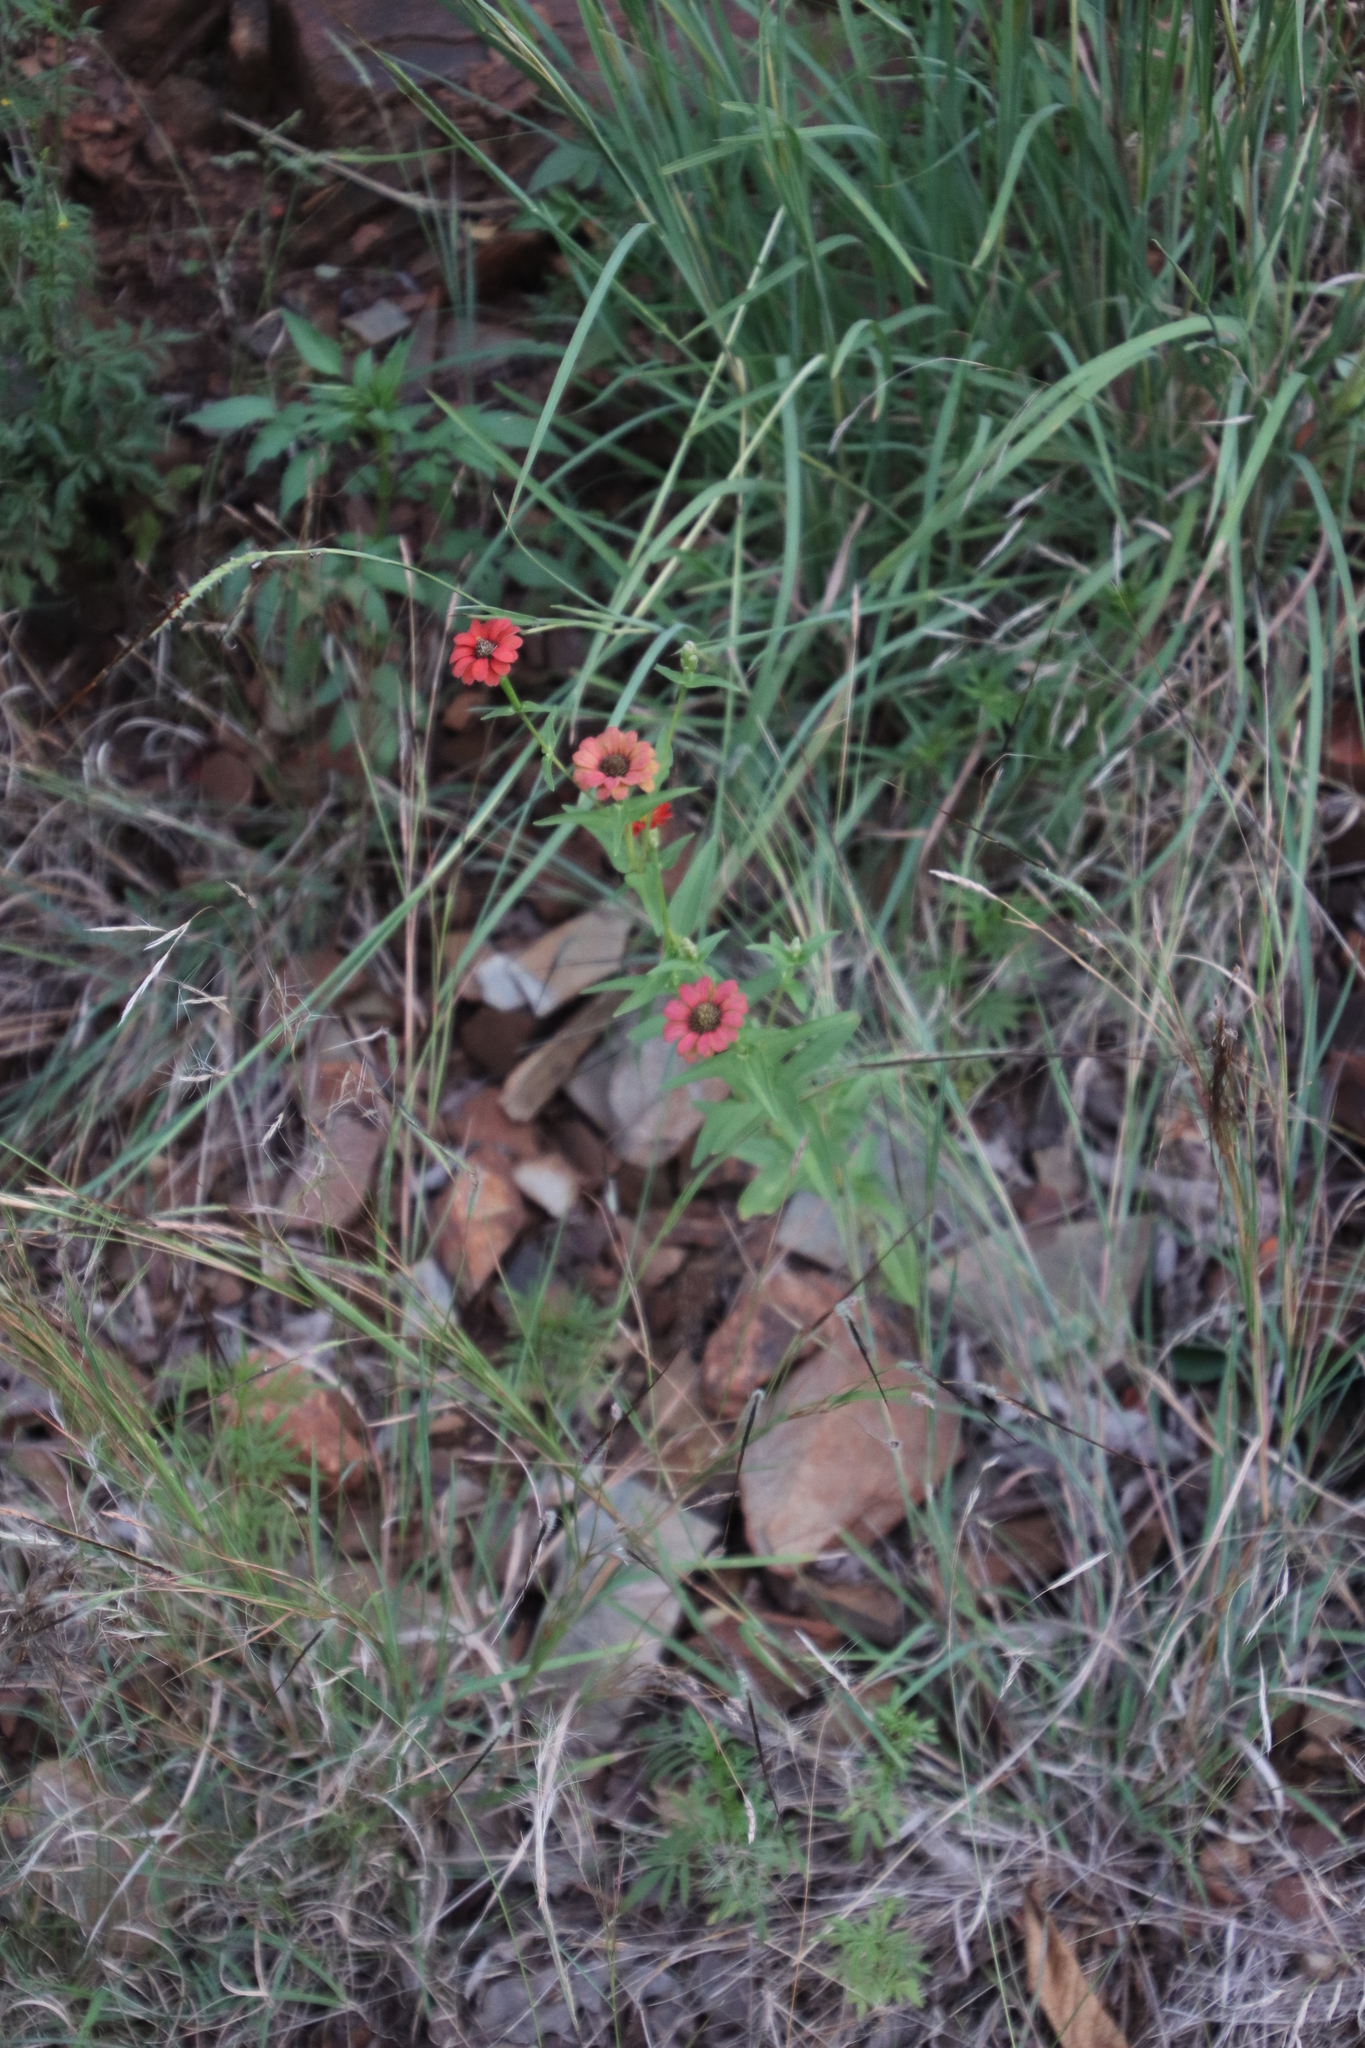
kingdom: Plantae
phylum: Tracheophyta
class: Magnoliopsida
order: Asterales
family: Asteraceae
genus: Zinnia
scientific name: Zinnia peruviana
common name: Peruvian zinnia
